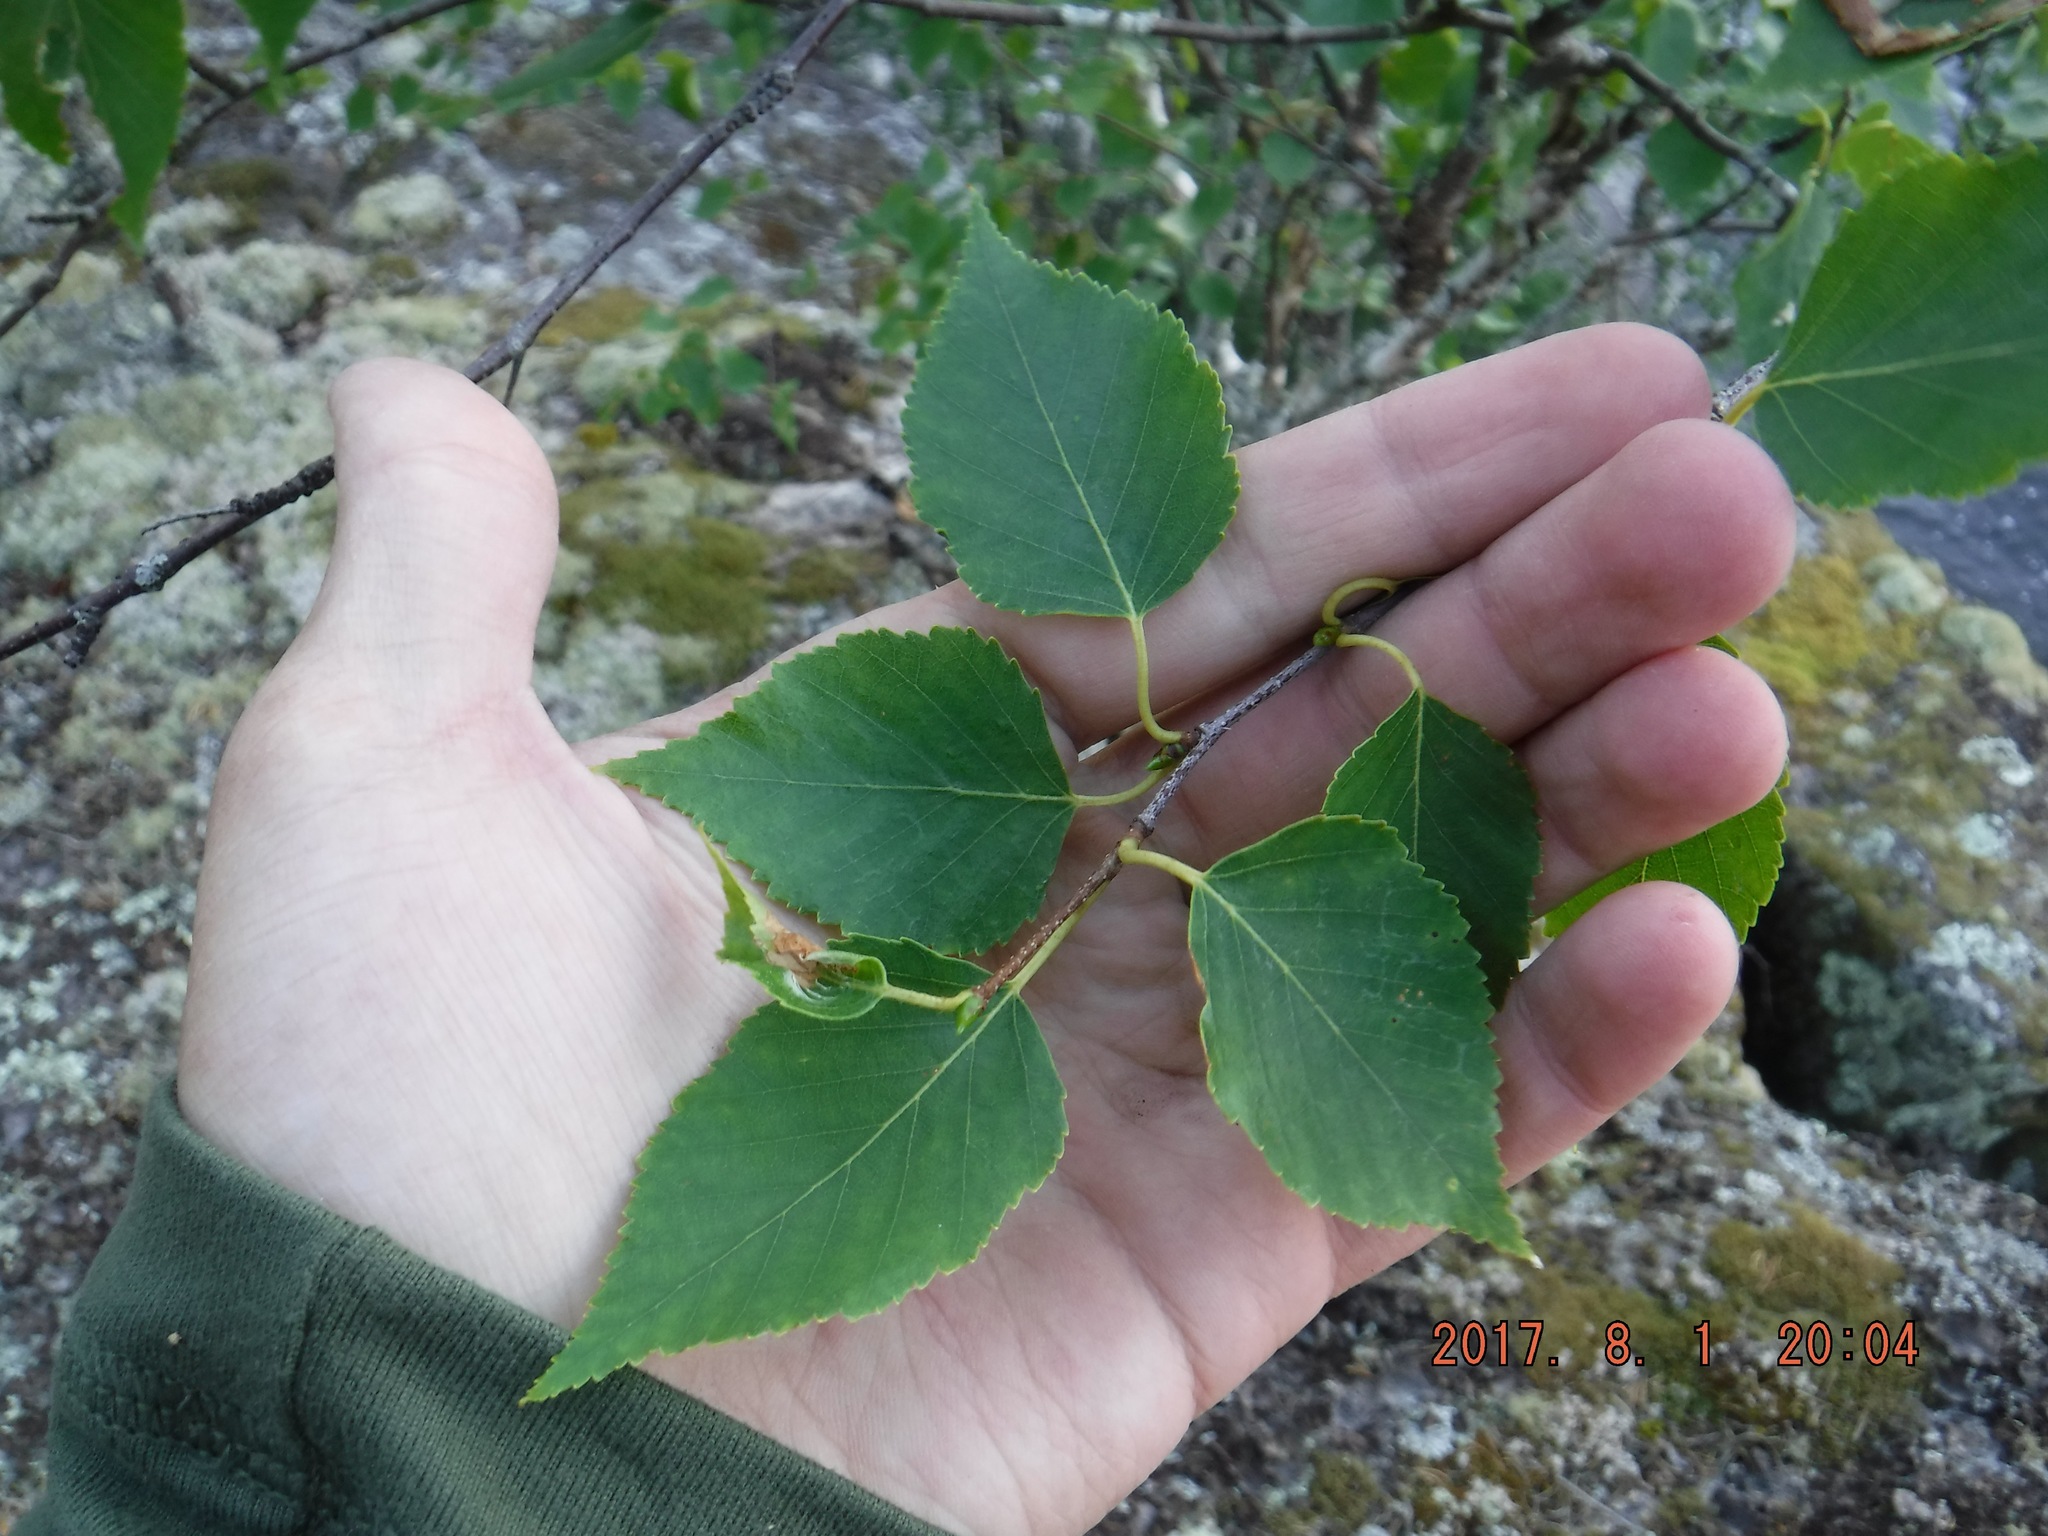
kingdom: Plantae
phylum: Tracheophyta
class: Magnoliopsida
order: Fagales
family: Betulaceae
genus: Betula
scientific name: Betula papyrifera
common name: Paper birch
